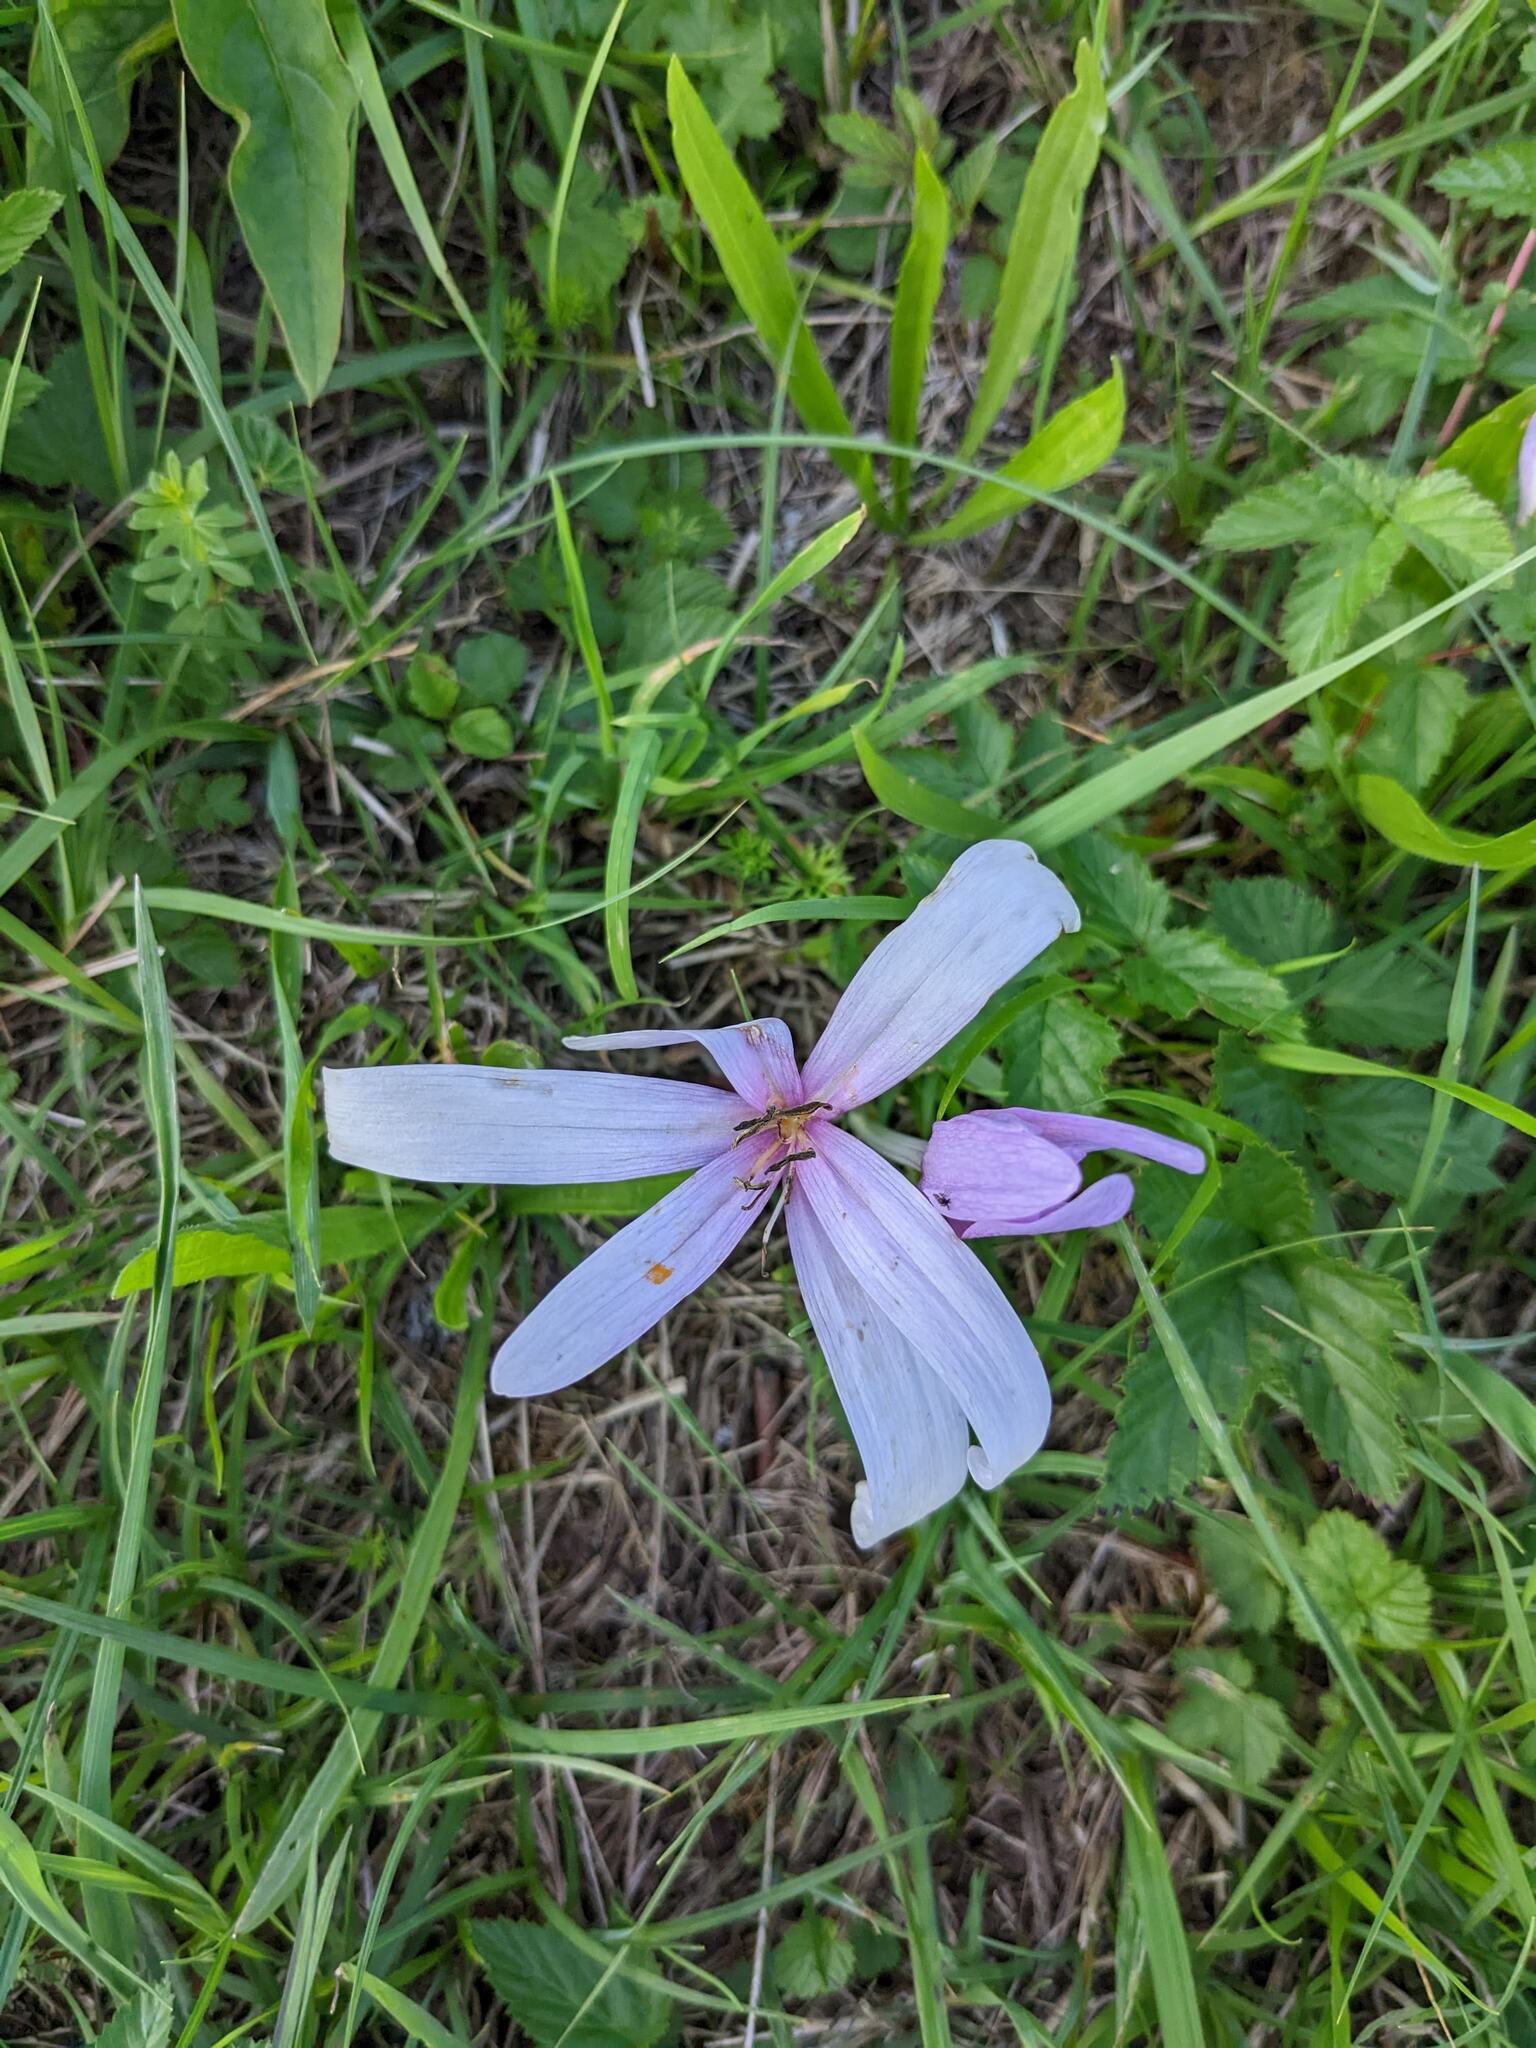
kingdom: Plantae
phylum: Tracheophyta
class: Liliopsida
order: Liliales
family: Colchicaceae
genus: Colchicum
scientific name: Colchicum autumnale
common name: Autumn crocus
